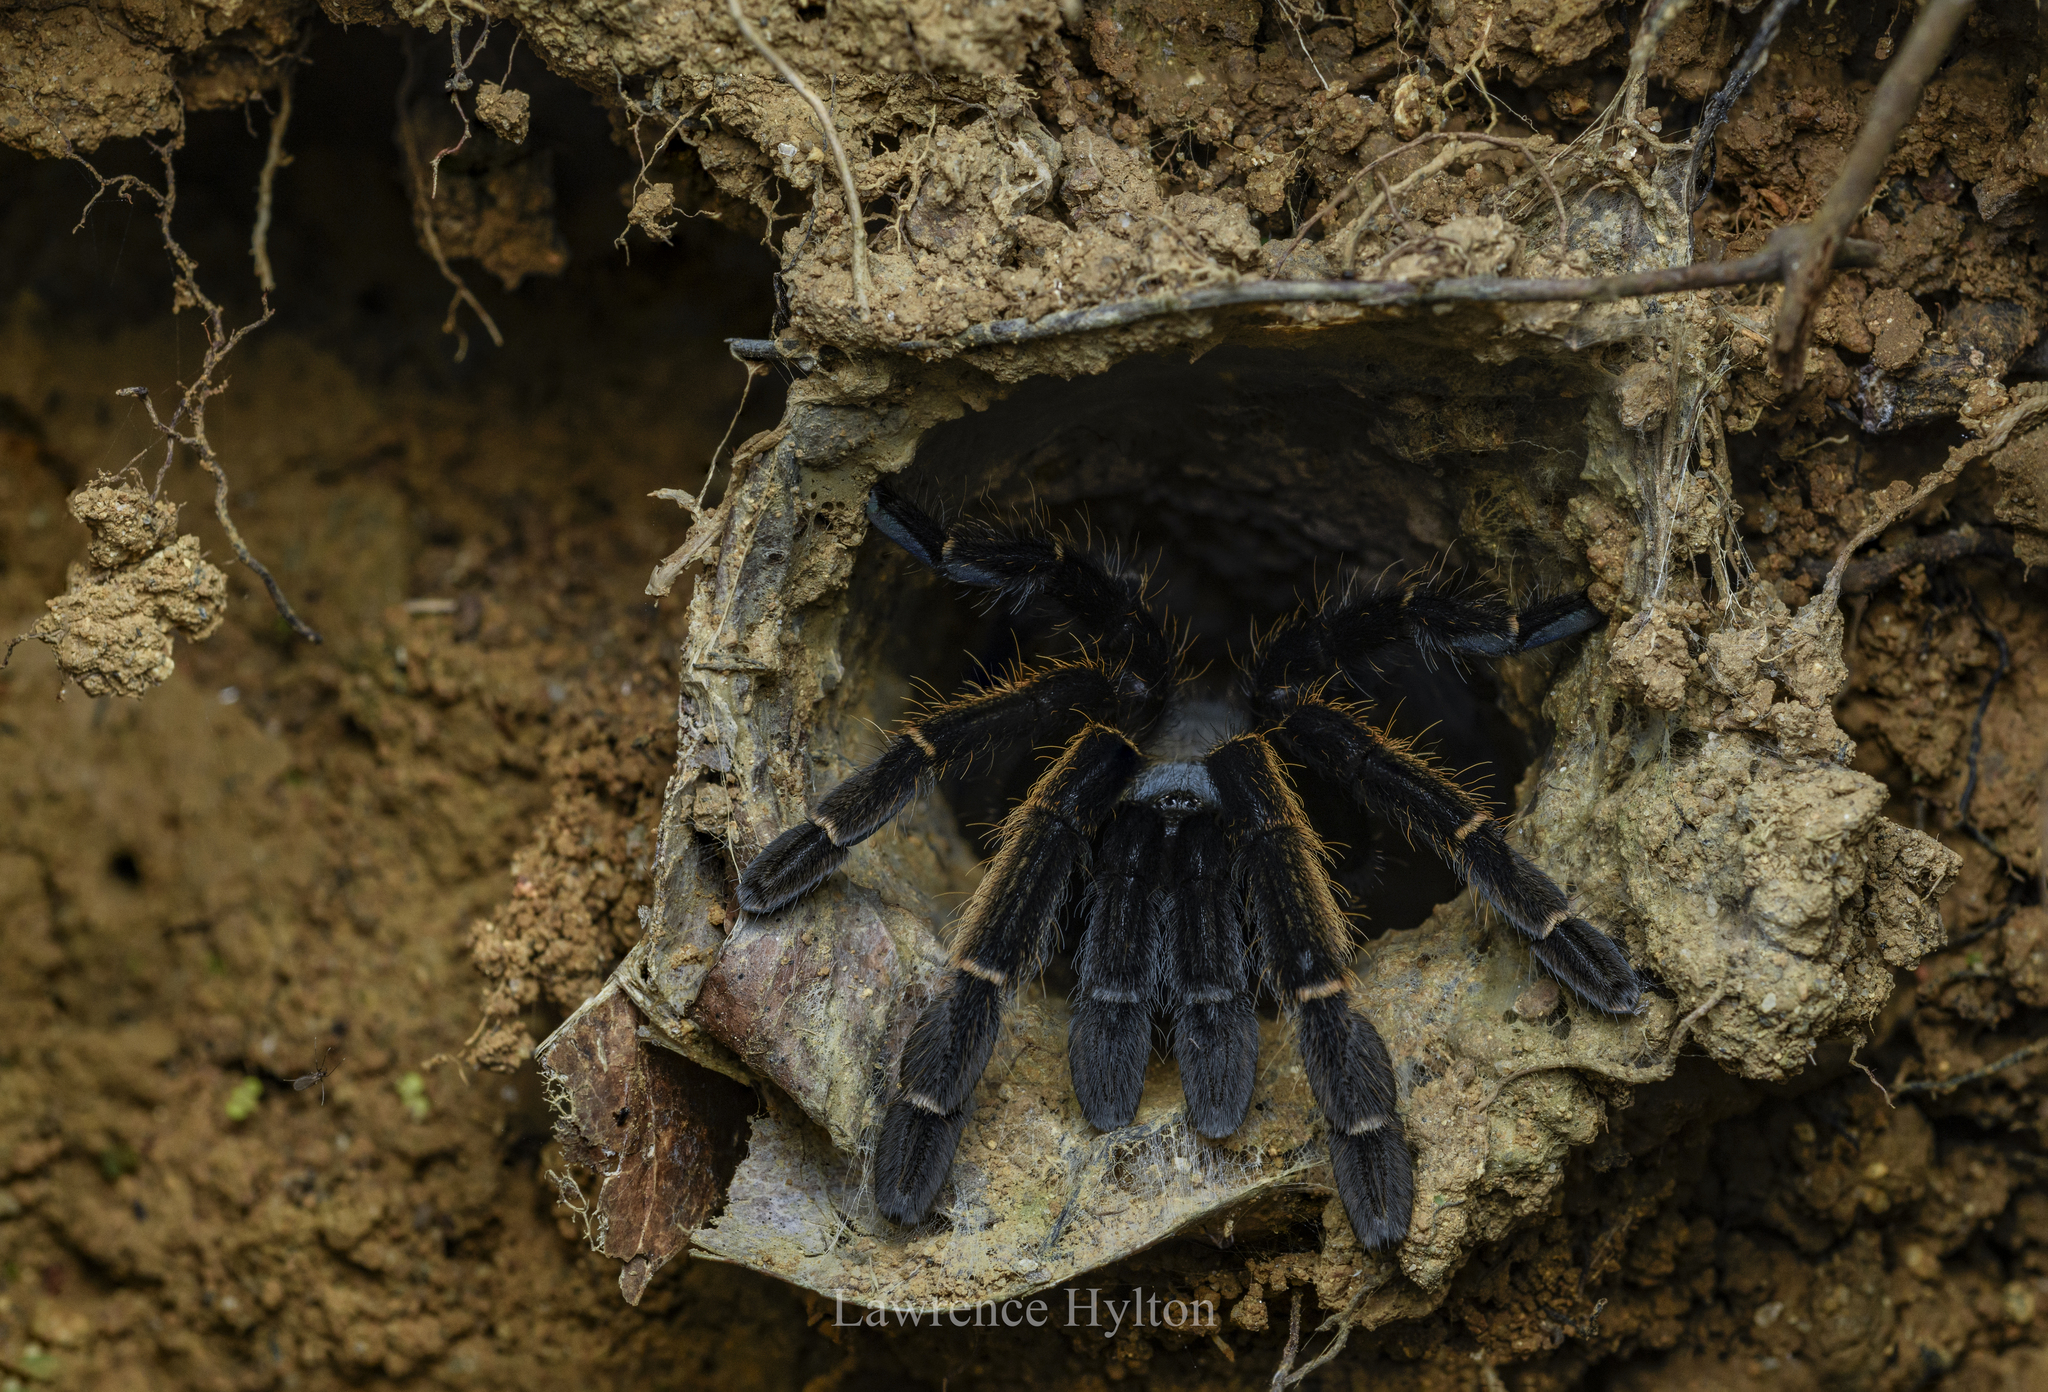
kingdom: Animalia
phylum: Arthropoda
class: Arachnida
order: Araneae
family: Theraphosidae
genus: Ornithoctonus
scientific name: Ornithoctonus aureotibialis
